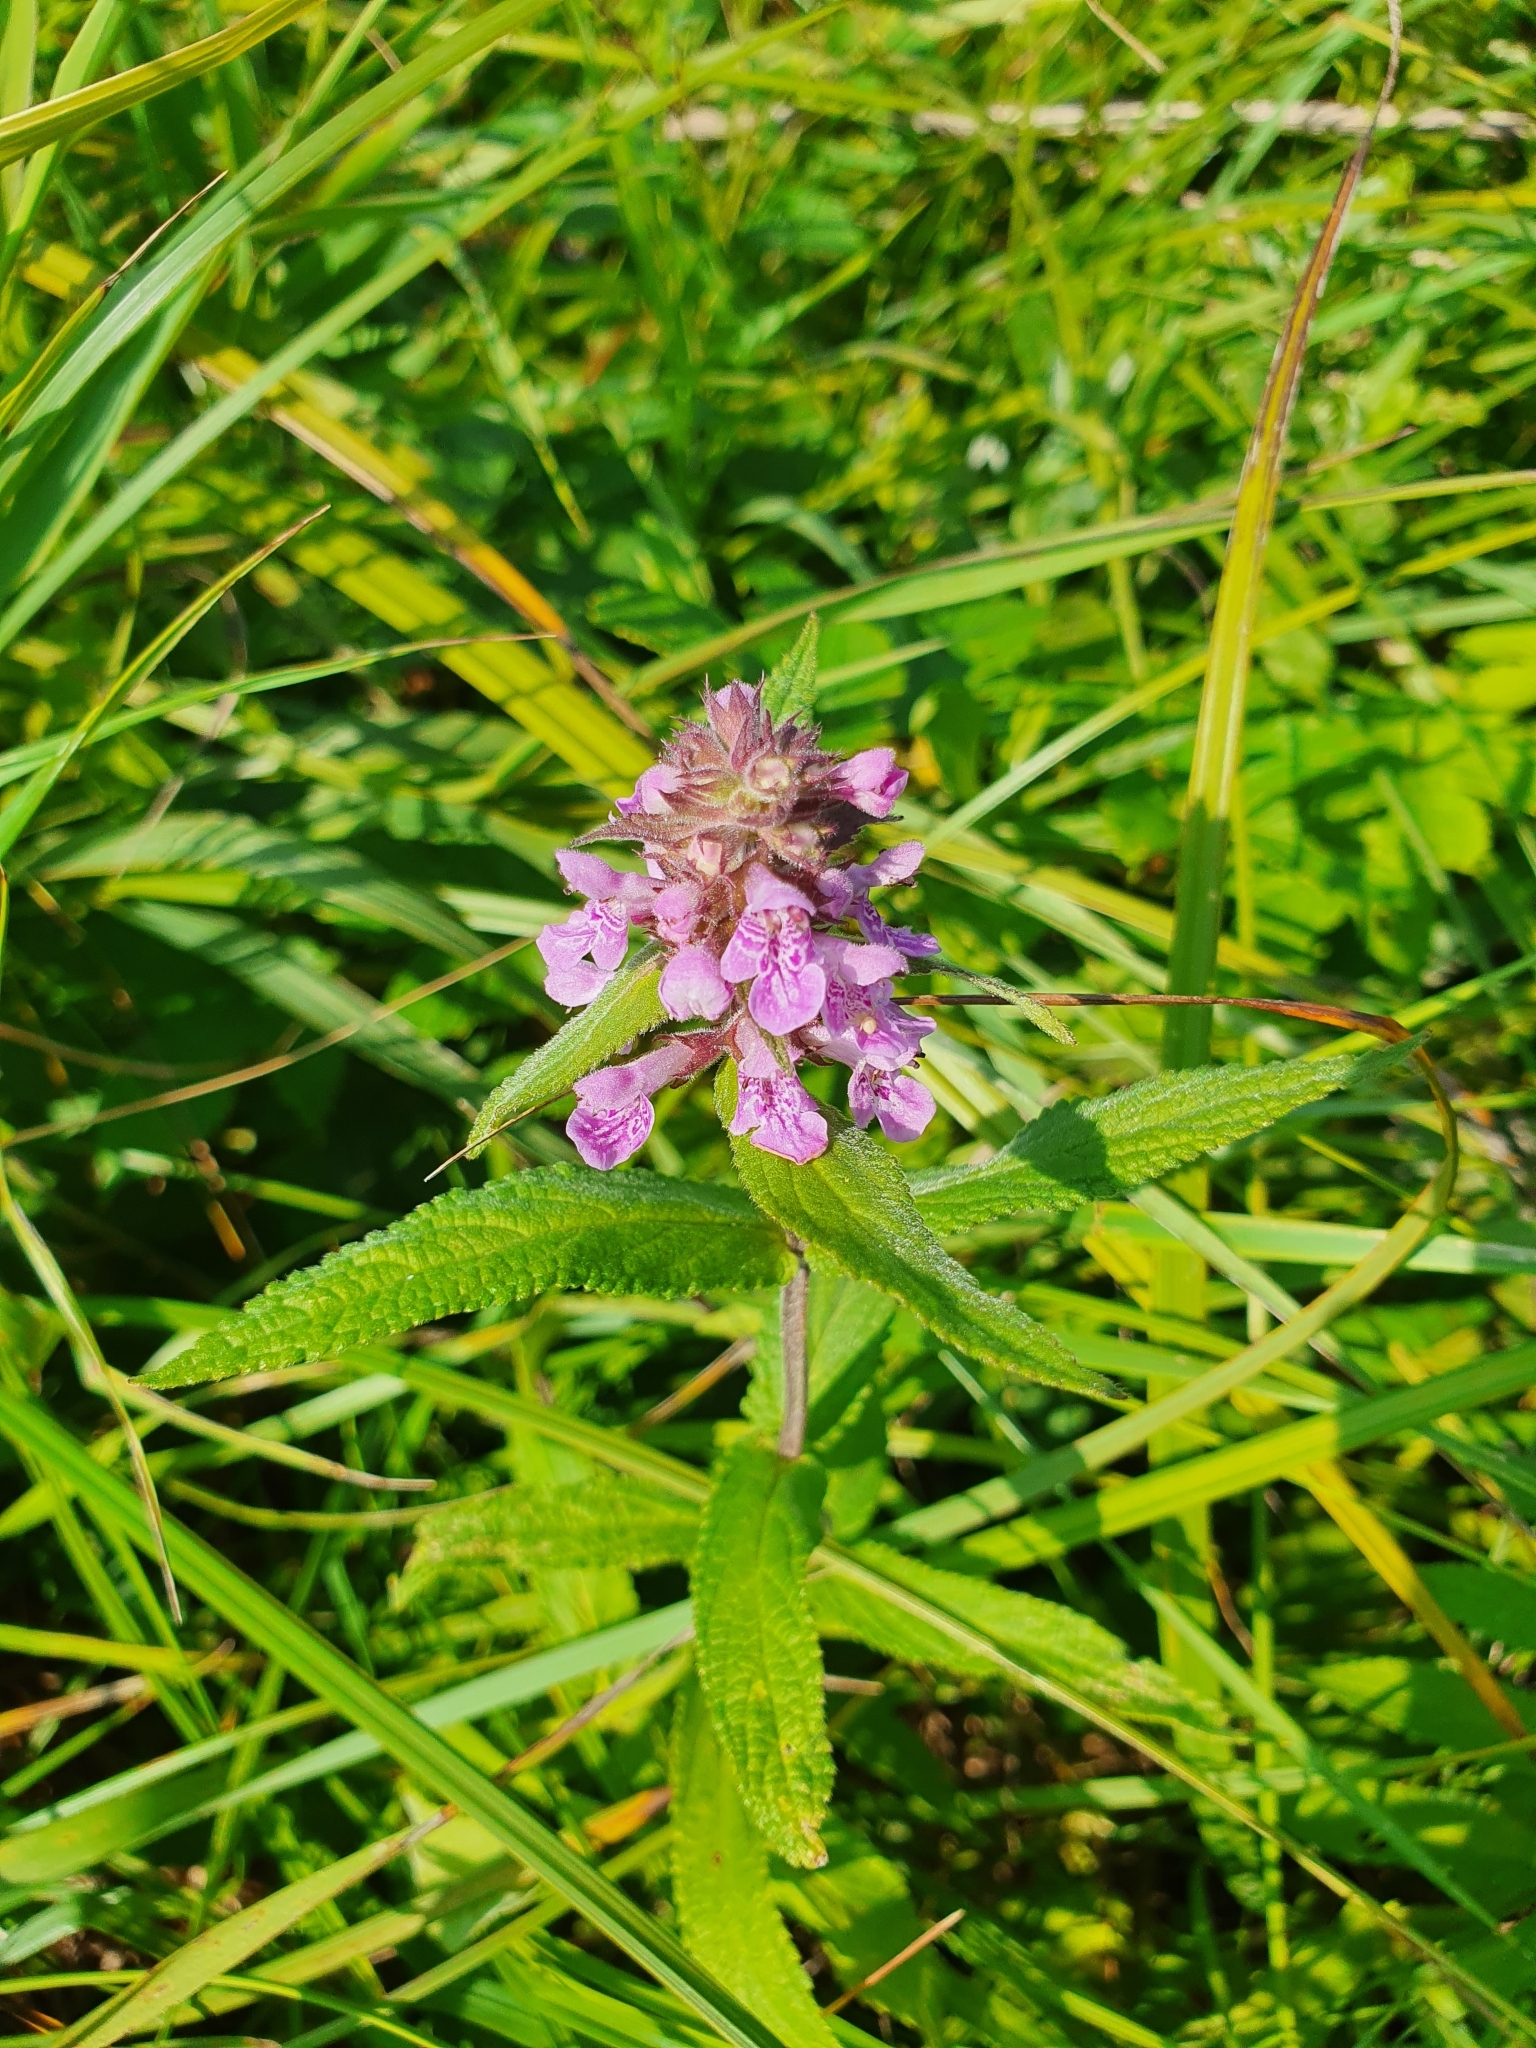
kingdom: Plantae
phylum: Tracheophyta
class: Magnoliopsida
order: Lamiales
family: Lamiaceae
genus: Stachys
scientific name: Stachys palustris
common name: Marsh woundwort
